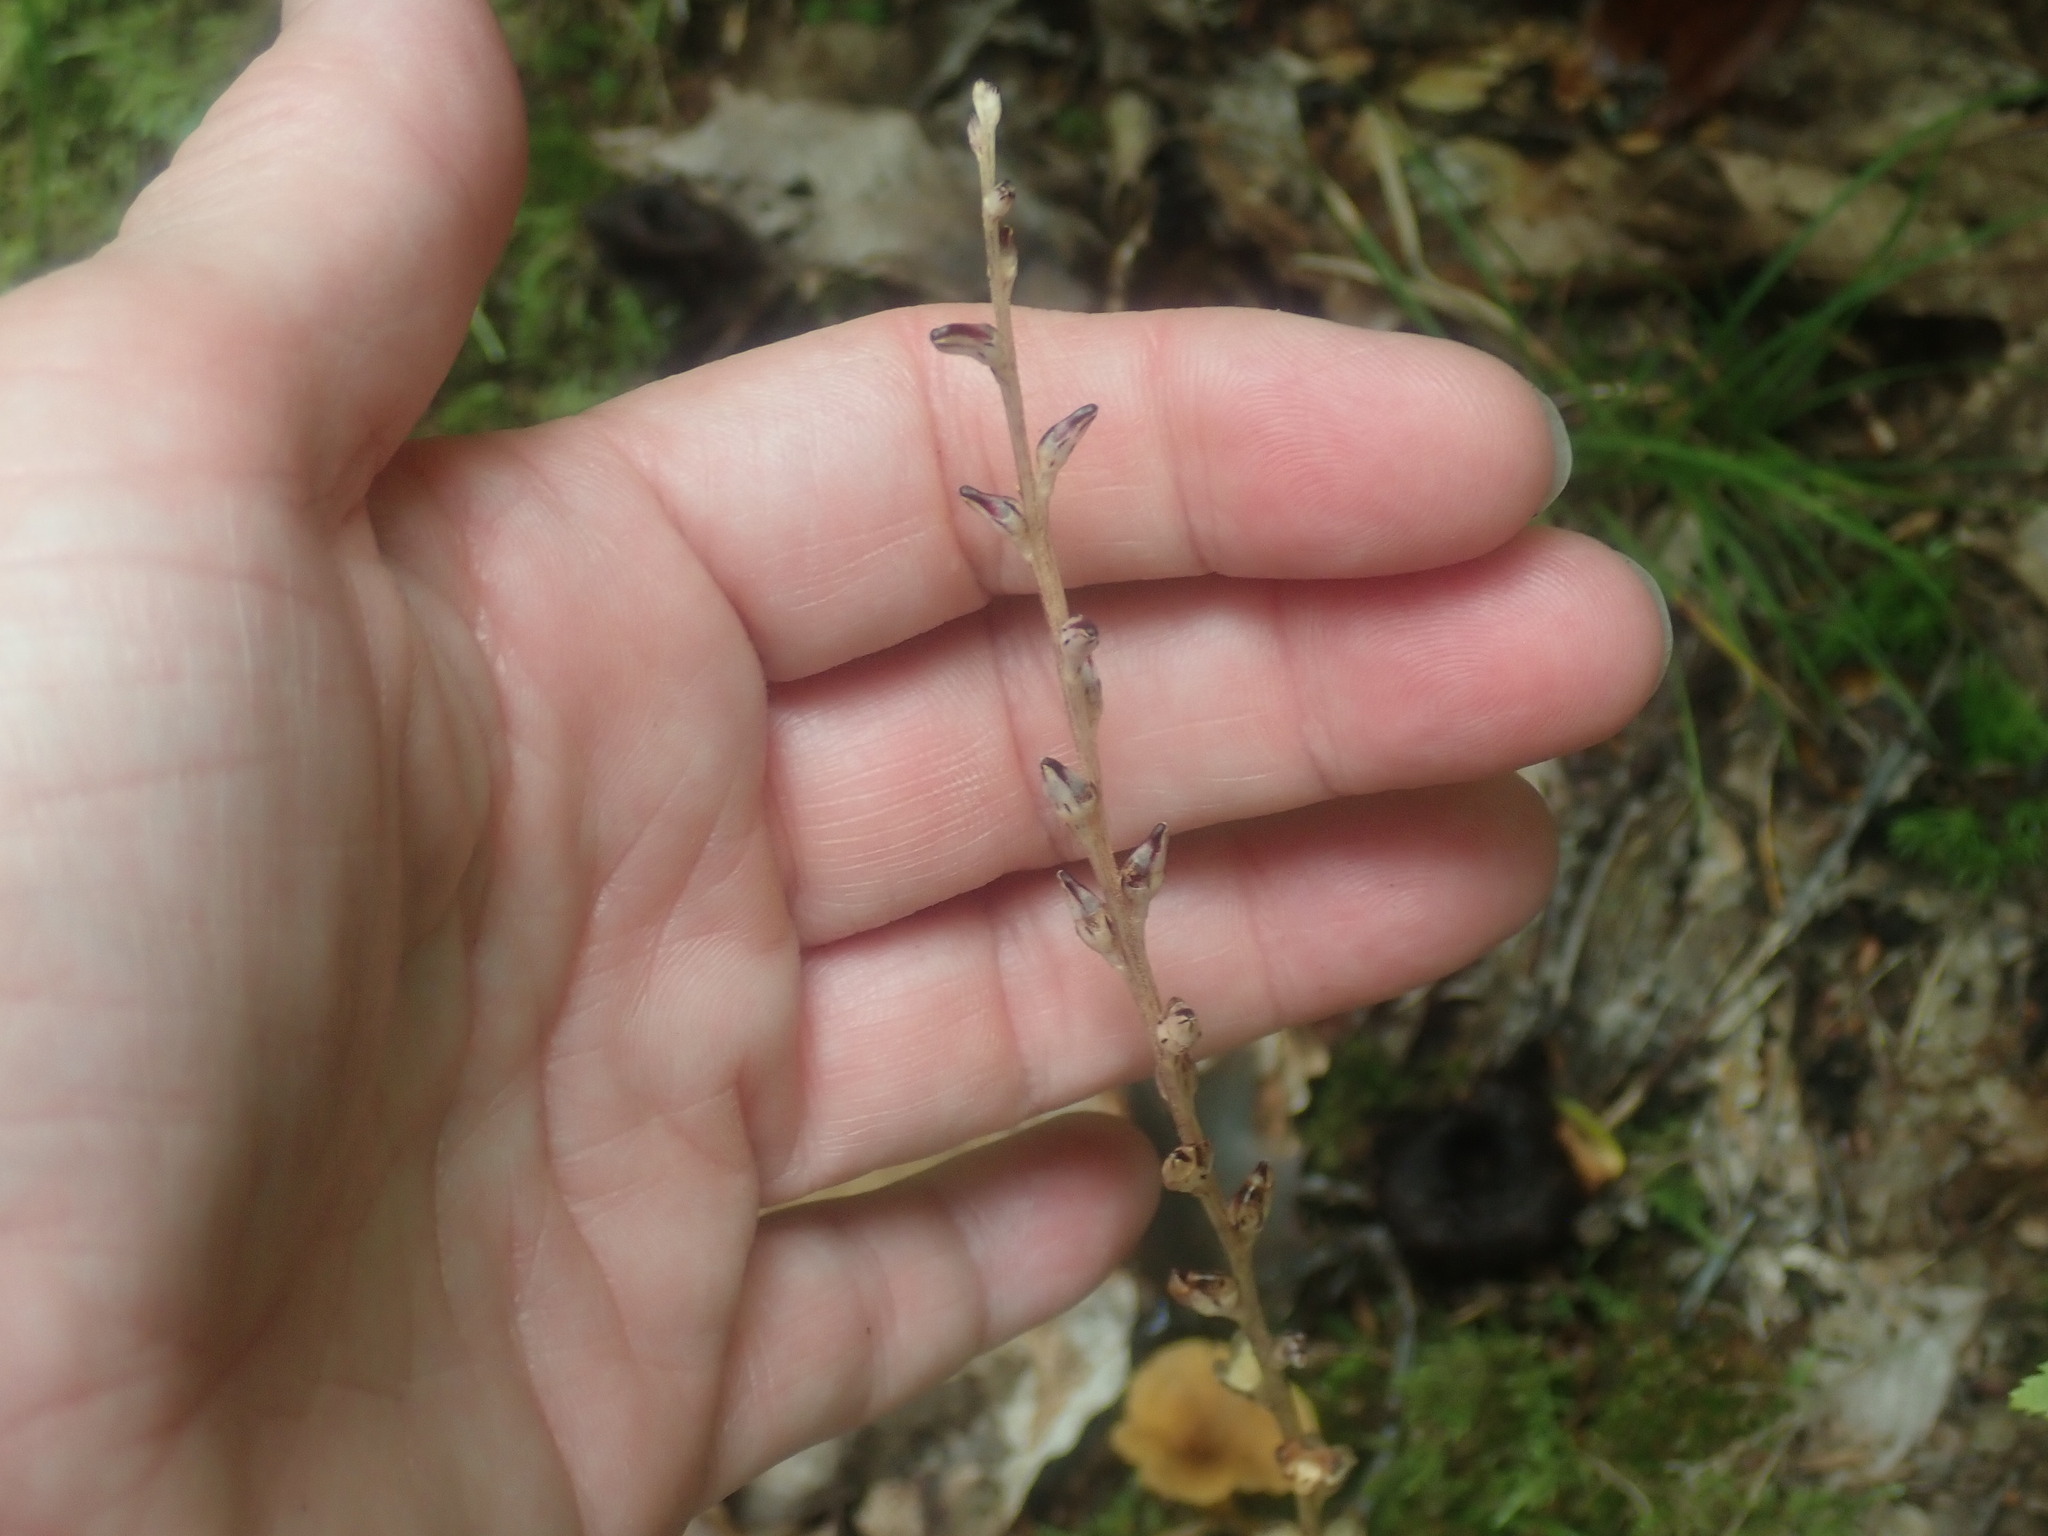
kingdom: Plantae
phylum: Tracheophyta
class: Magnoliopsida
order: Lamiales
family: Orobanchaceae
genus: Epifagus
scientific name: Epifagus virginiana
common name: Beechdrops
